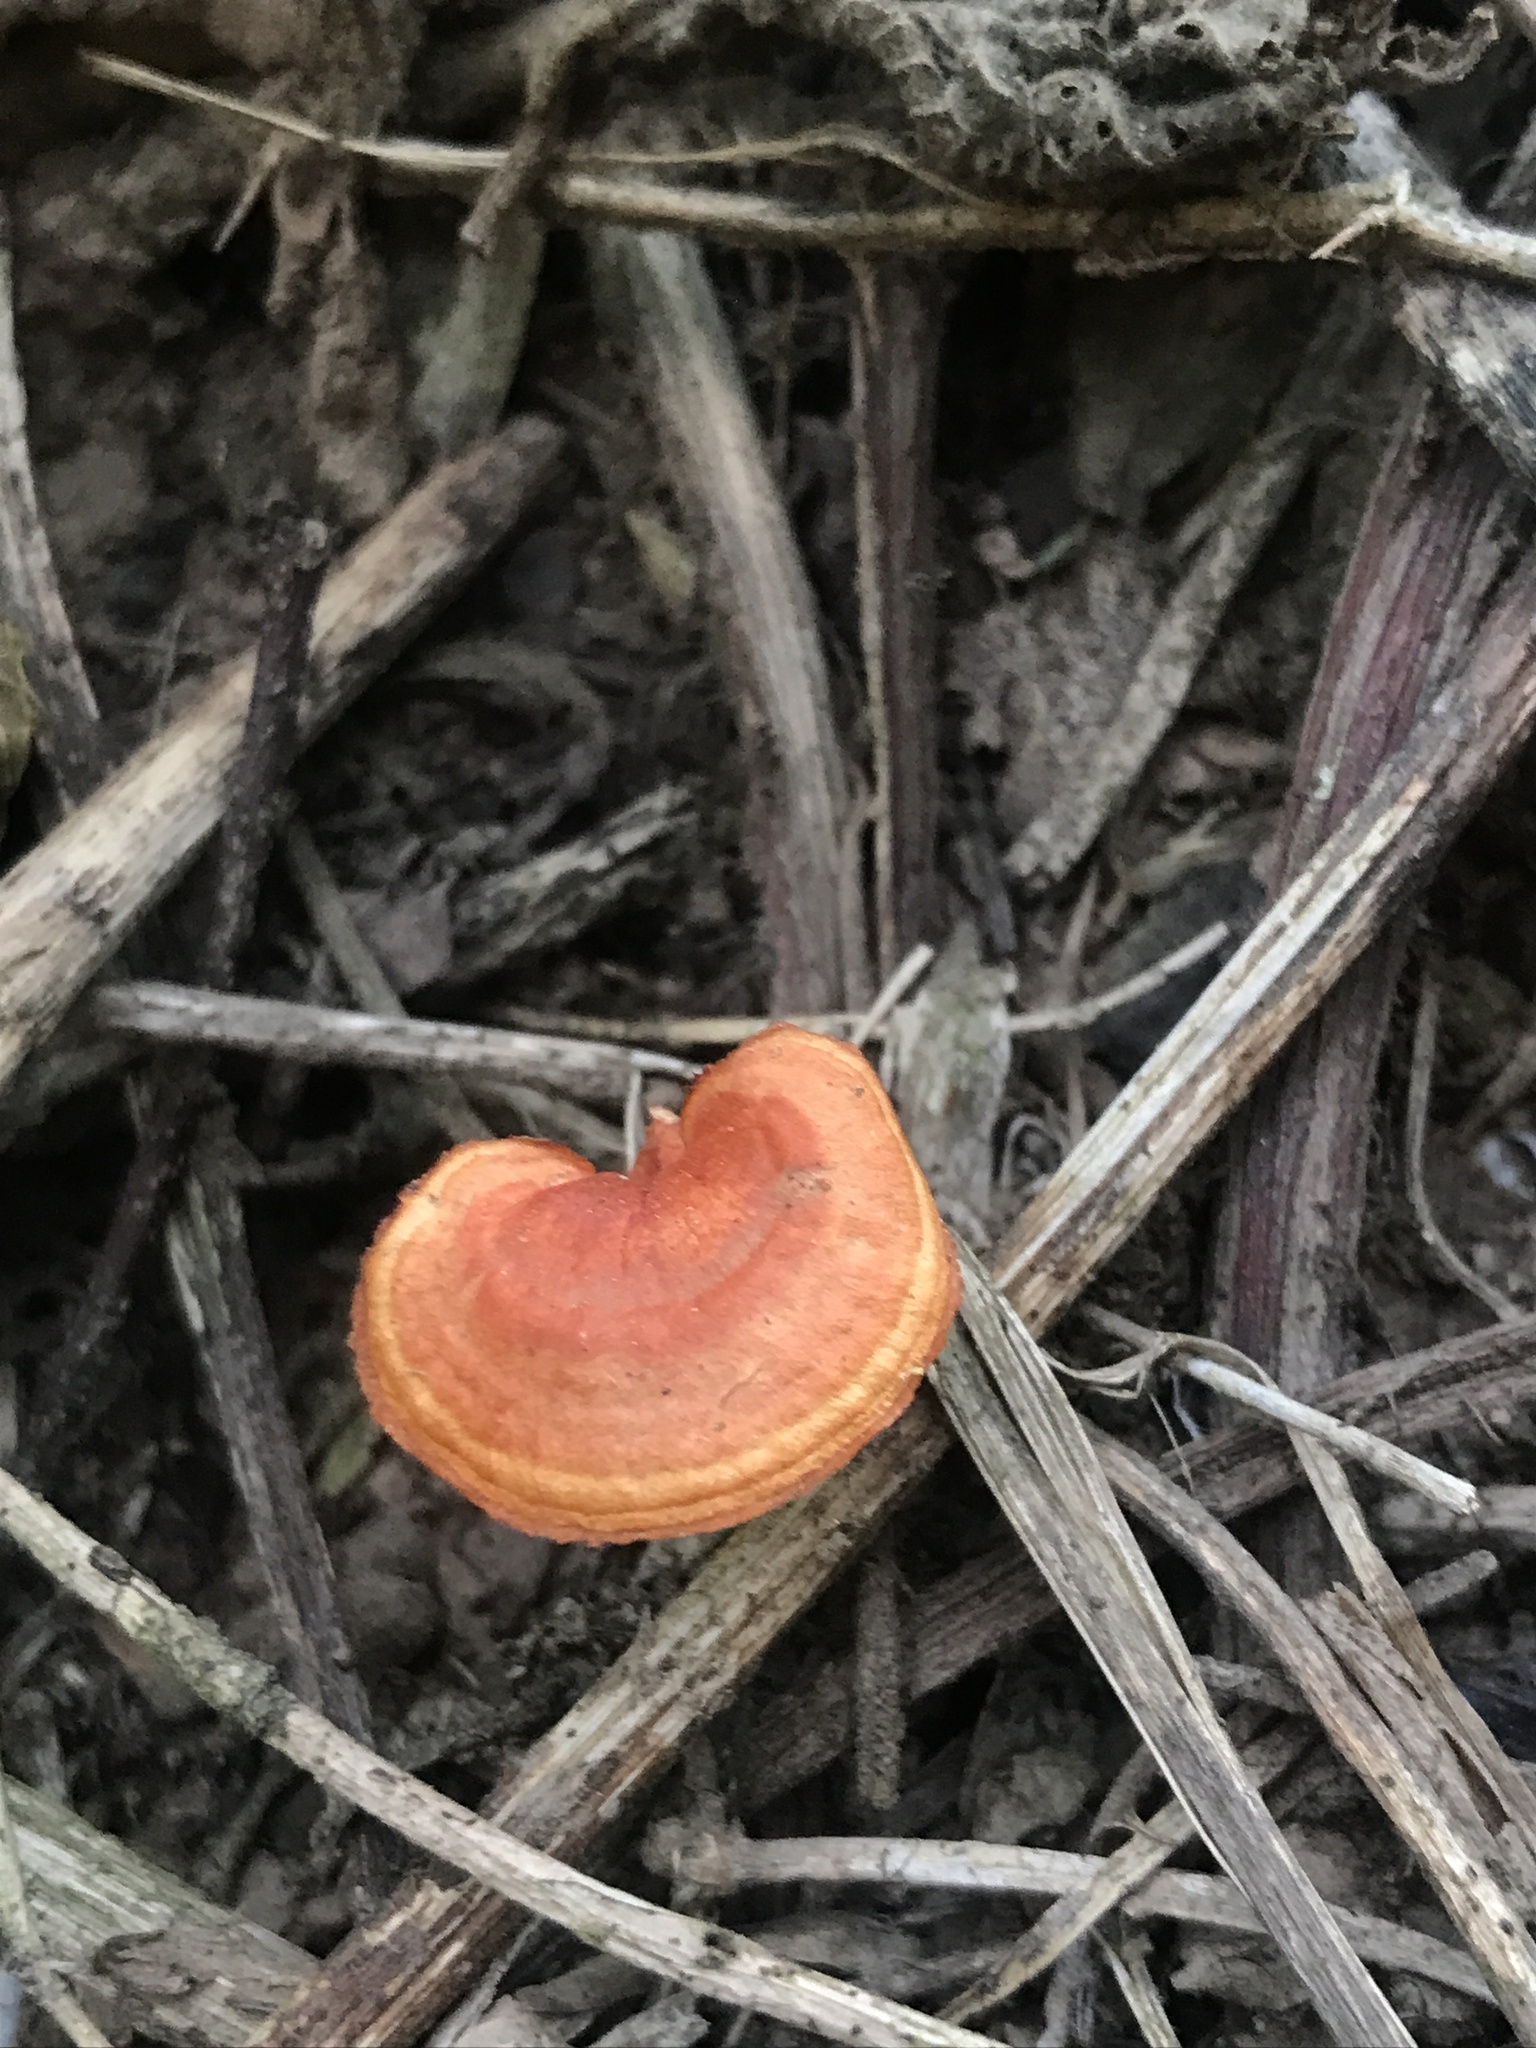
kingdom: Fungi
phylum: Basidiomycota
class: Agaricomycetes
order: Polyporales
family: Polyporaceae
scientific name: Polyporaceae
